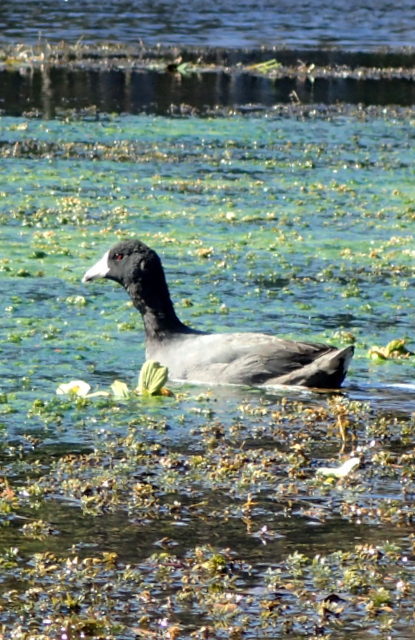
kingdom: Animalia
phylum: Chordata
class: Aves
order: Gruiformes
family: Rallidae
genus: Fulica
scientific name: Fulica americana
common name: American coot
